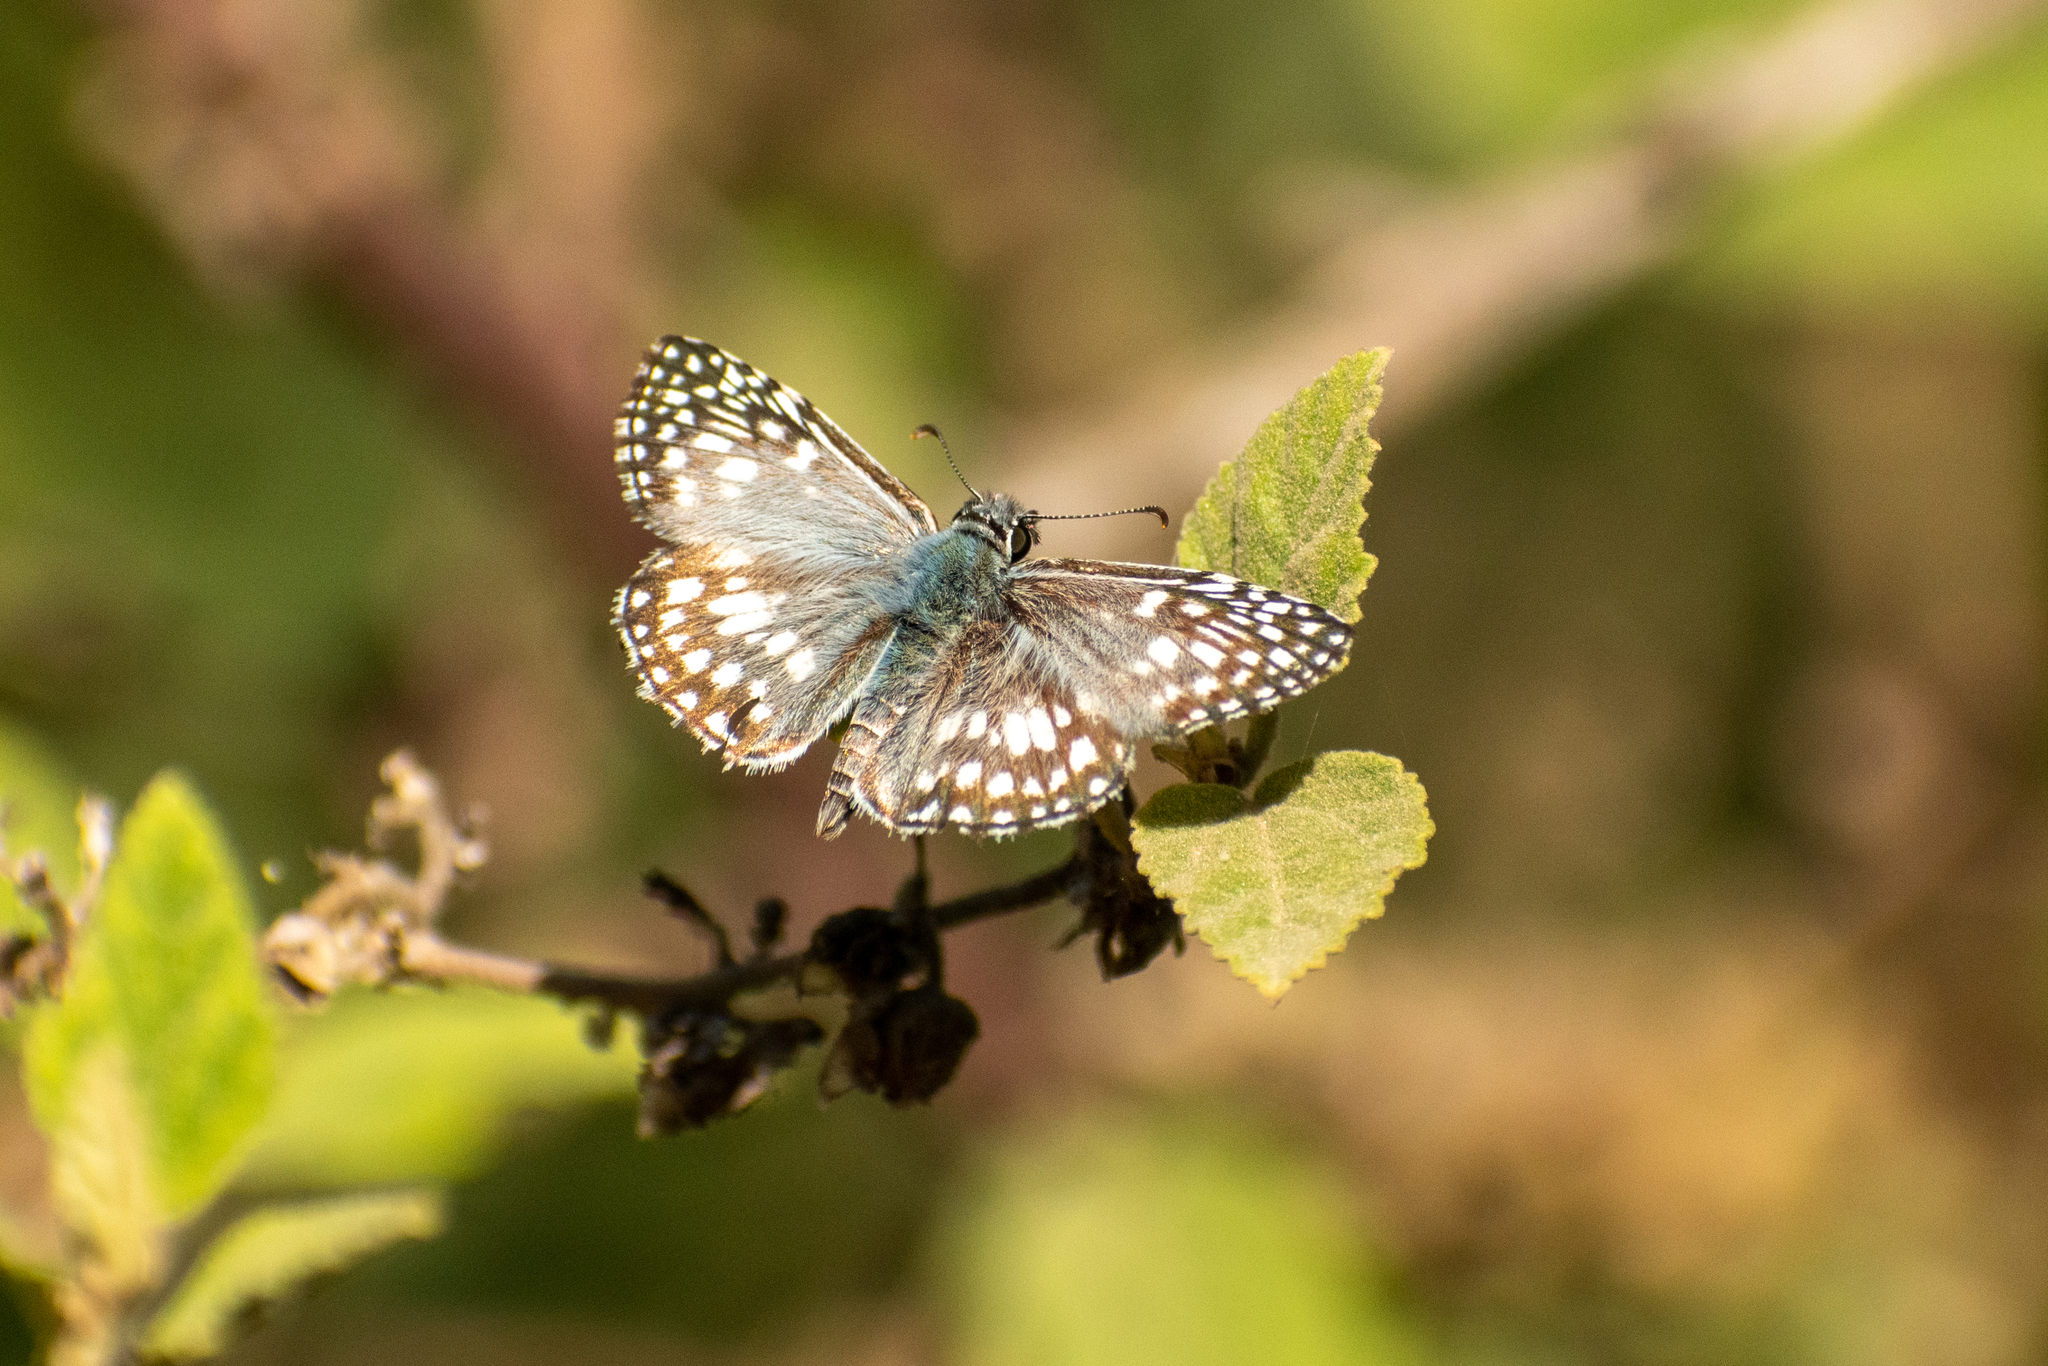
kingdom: Animalia
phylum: Arthropoda
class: Insecta
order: Lepidoptera
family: Hesperiidae
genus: Pyrgus
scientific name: Pyrgus oileus
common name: Tropical checkered-skipper
